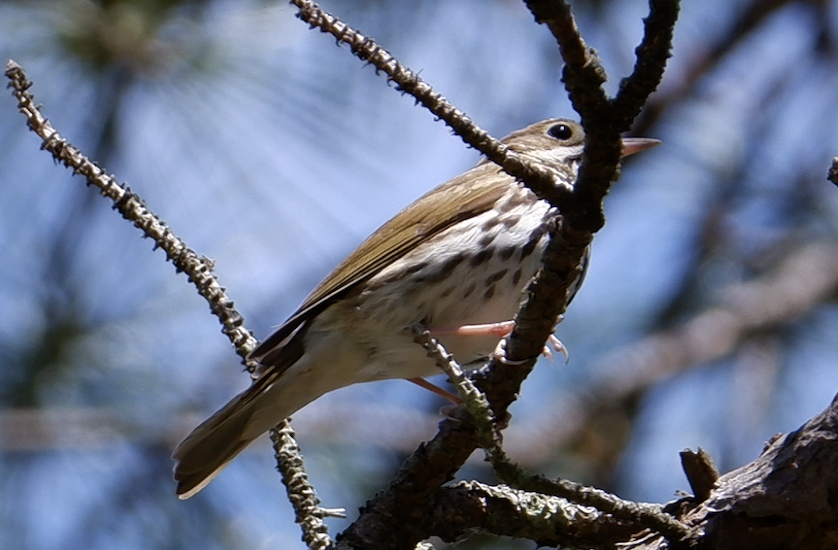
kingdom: Animalia
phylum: Chordata
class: Aves
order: Passeriformes
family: Parulidae
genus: Seiurus
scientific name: Seiurus aurocapilla
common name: Ovenbird
